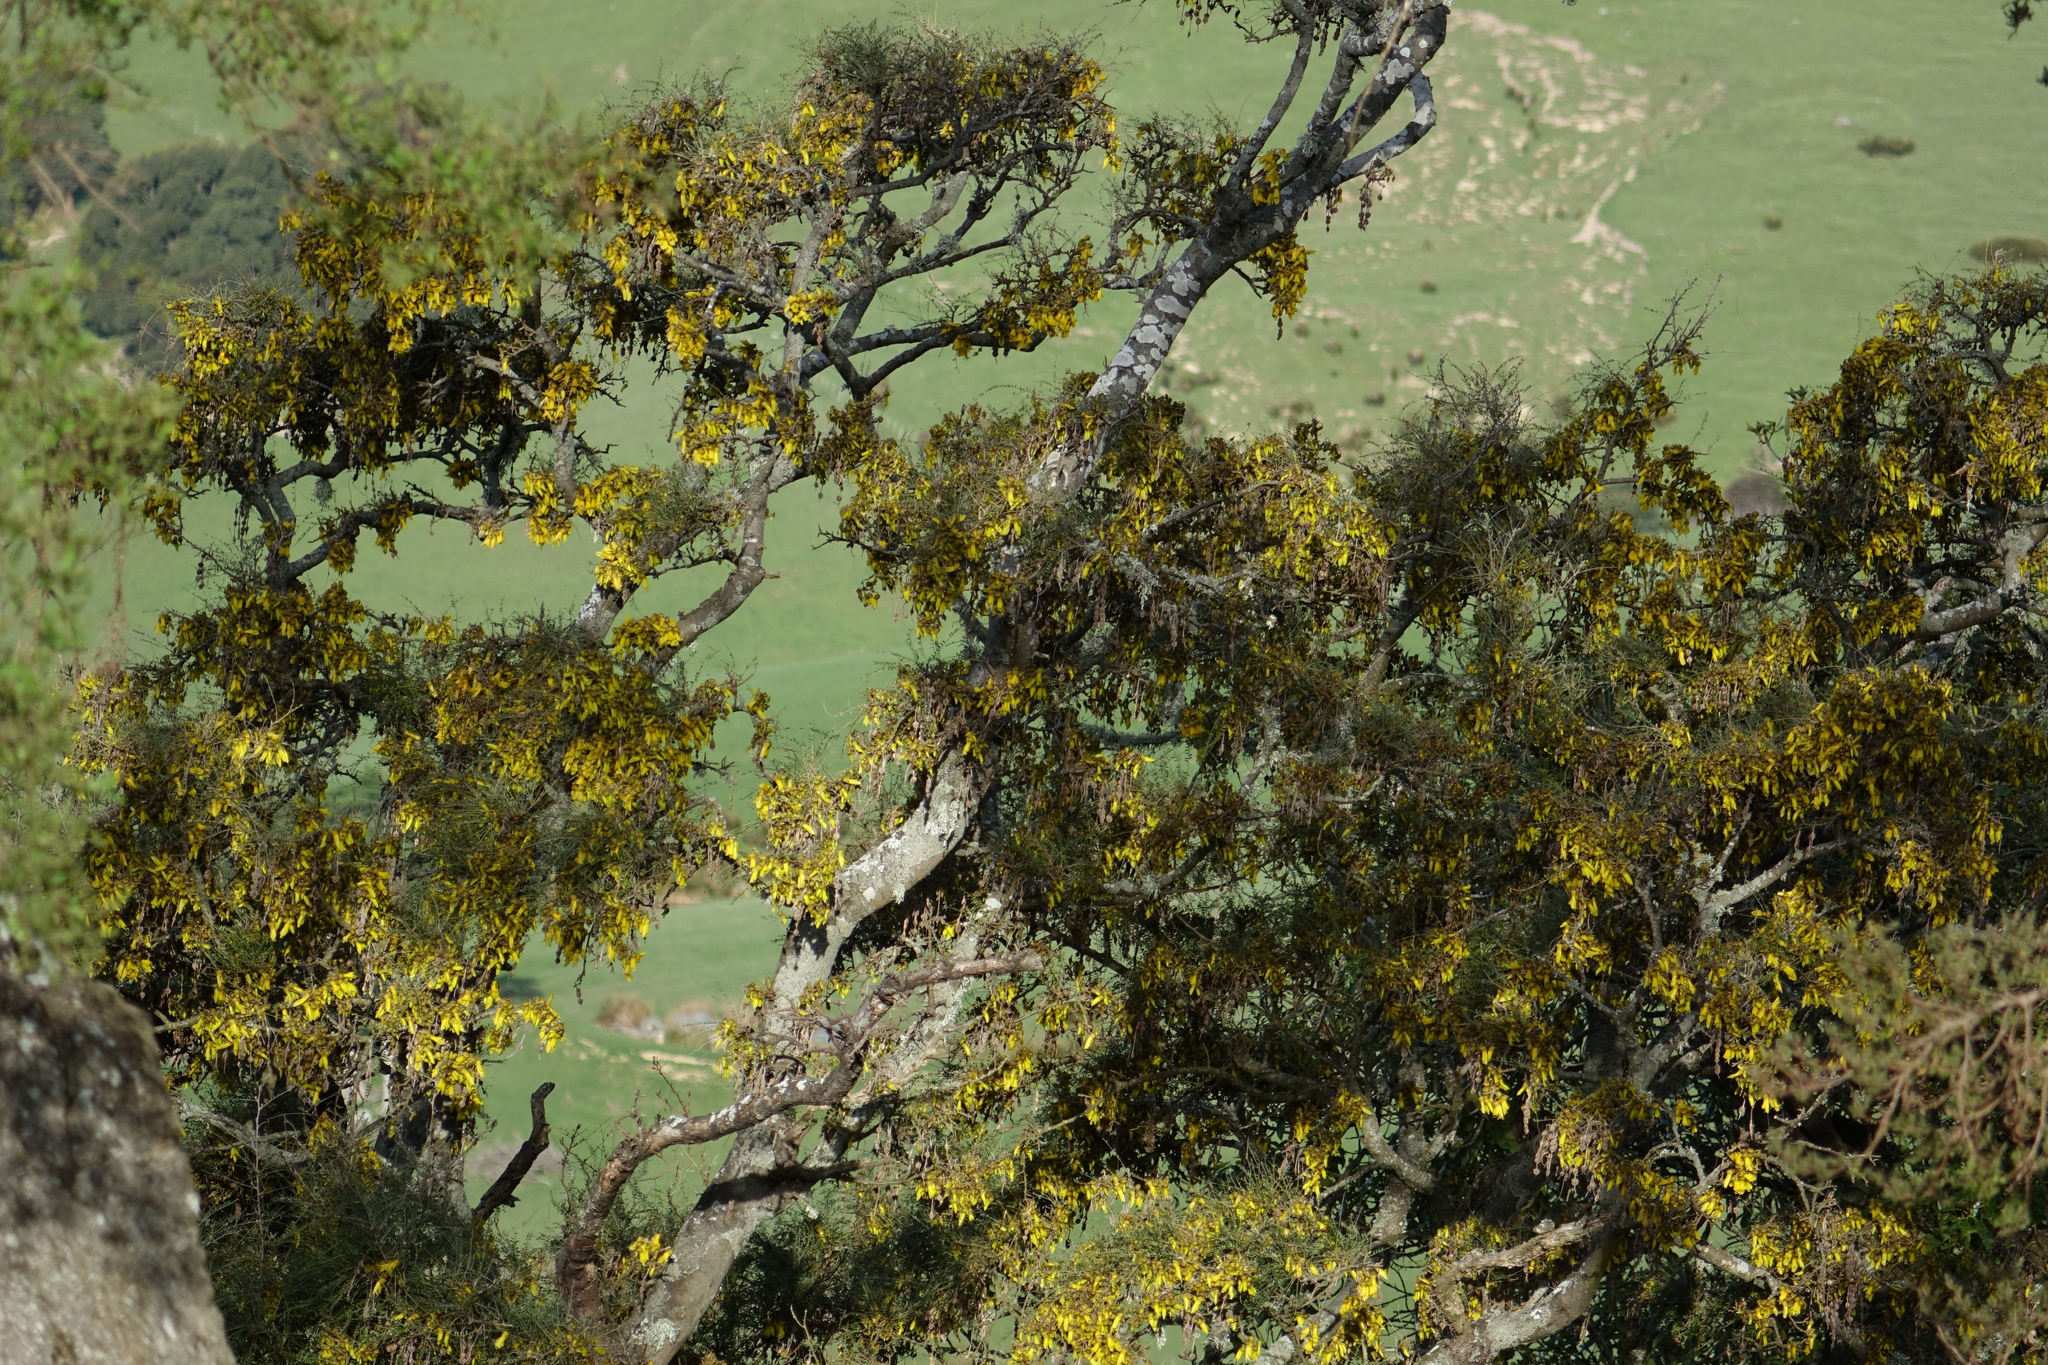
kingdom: Plantae
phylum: Tracheophyta
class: Magnoliopsida
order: Fabales
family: Fabaceae
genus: Sophora
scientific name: Sophora microphylla
